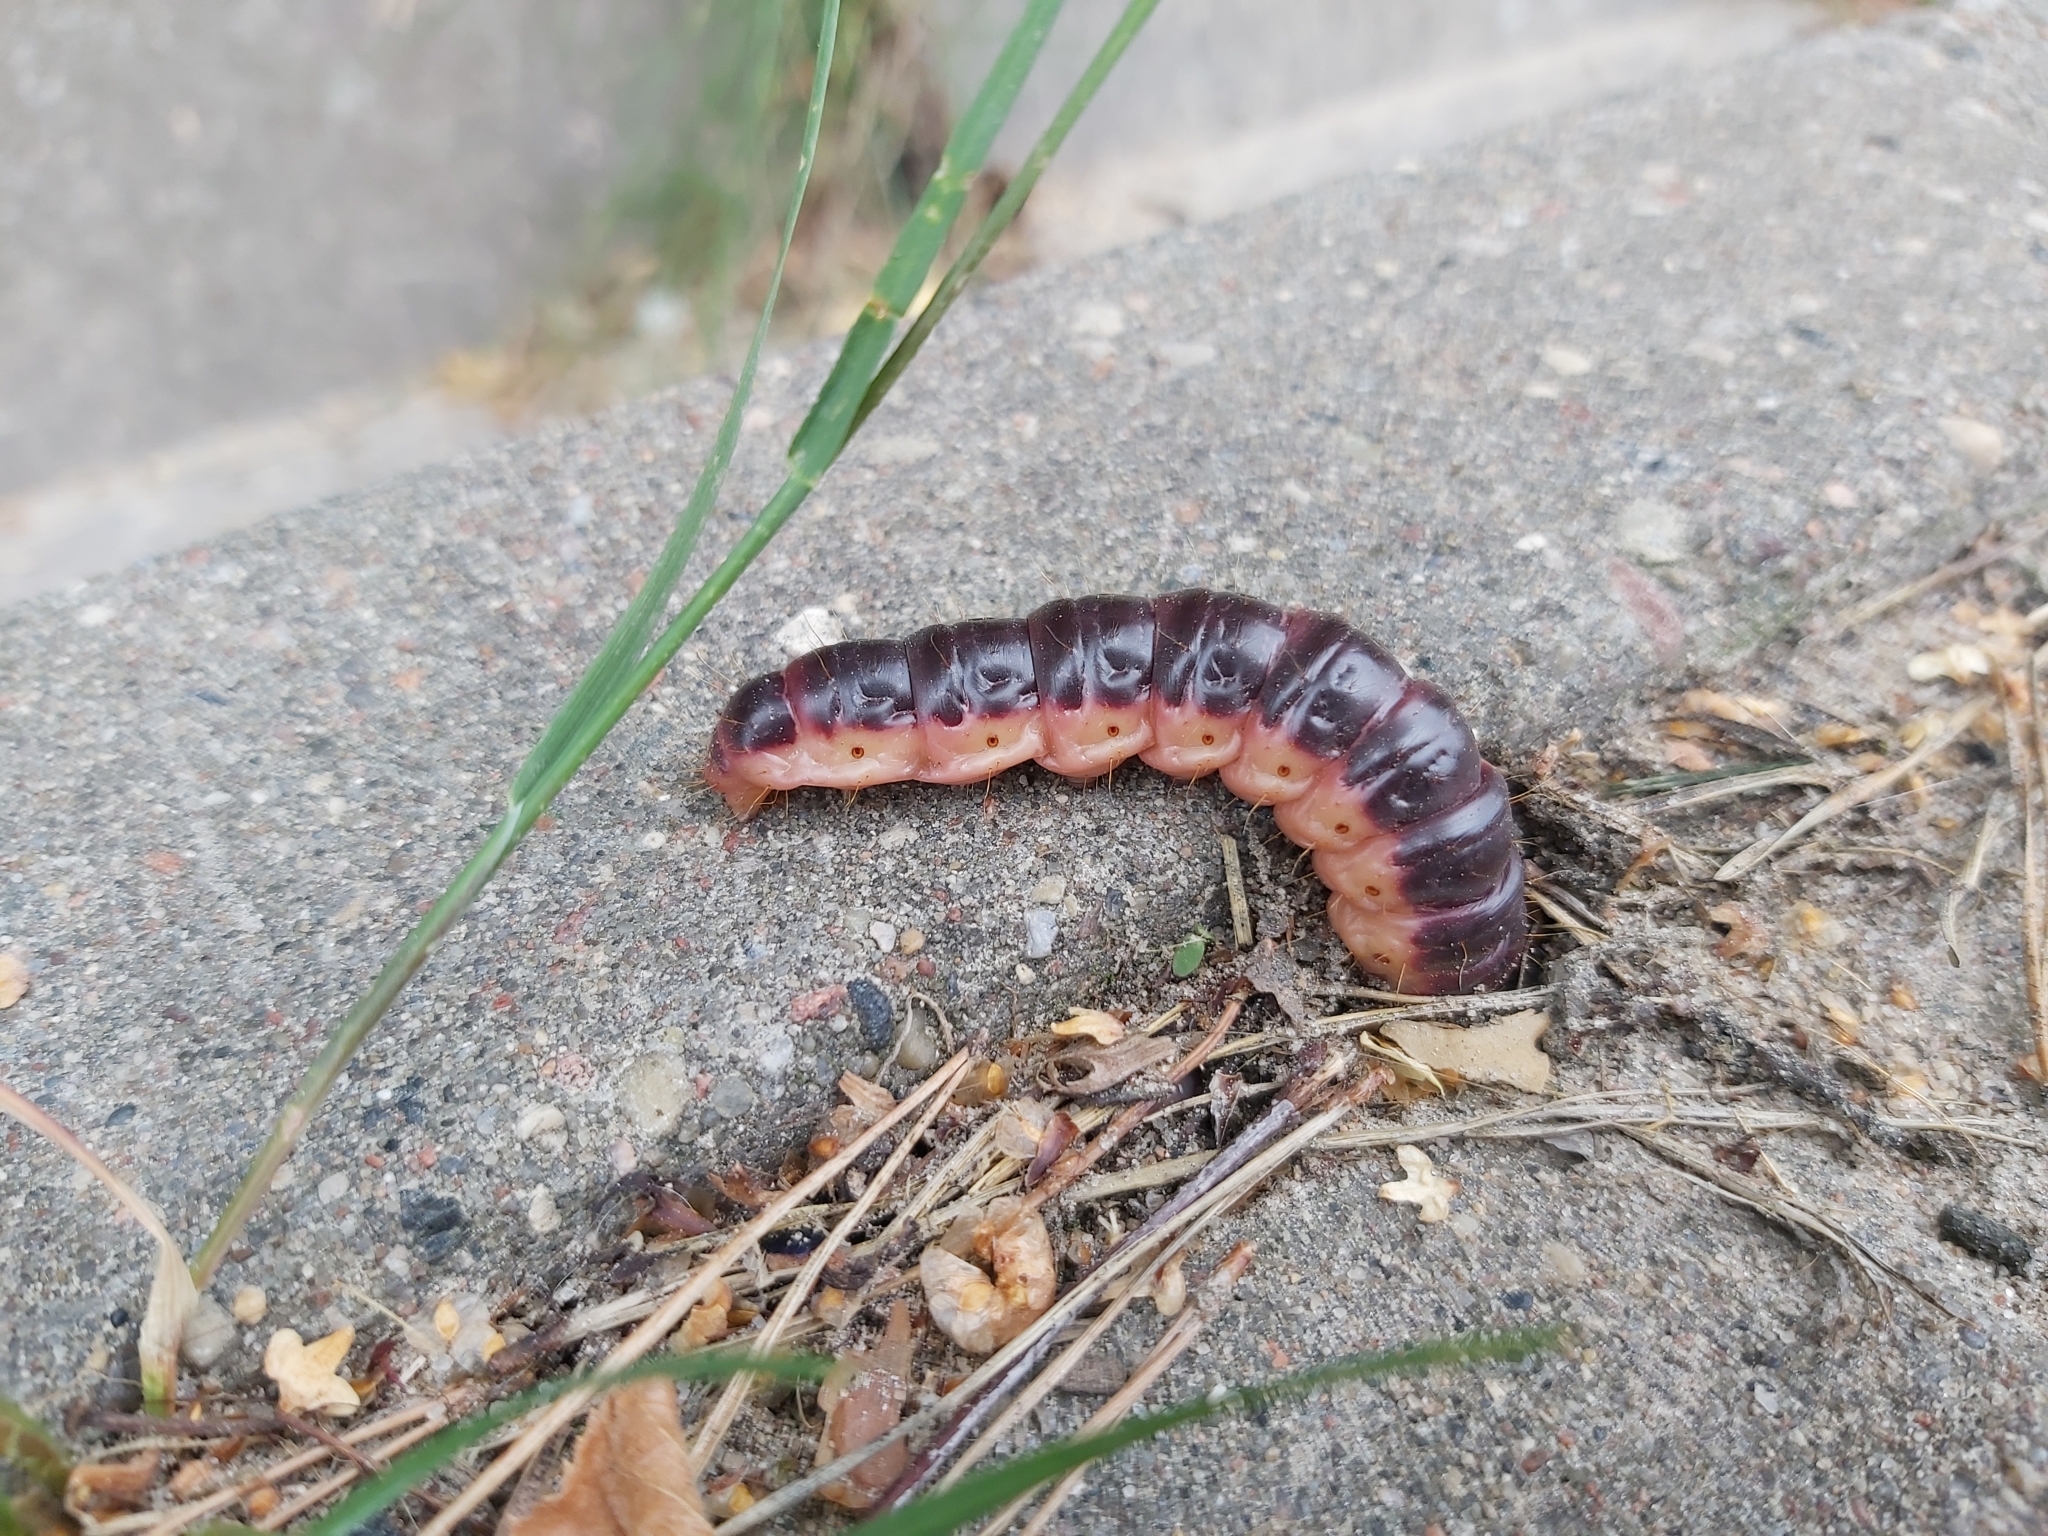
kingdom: Animalia
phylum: Arthropoda
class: Insecta
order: Lepidoptera
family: Cossidae
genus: Cossus
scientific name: Cossus cossus
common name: Goat moth
